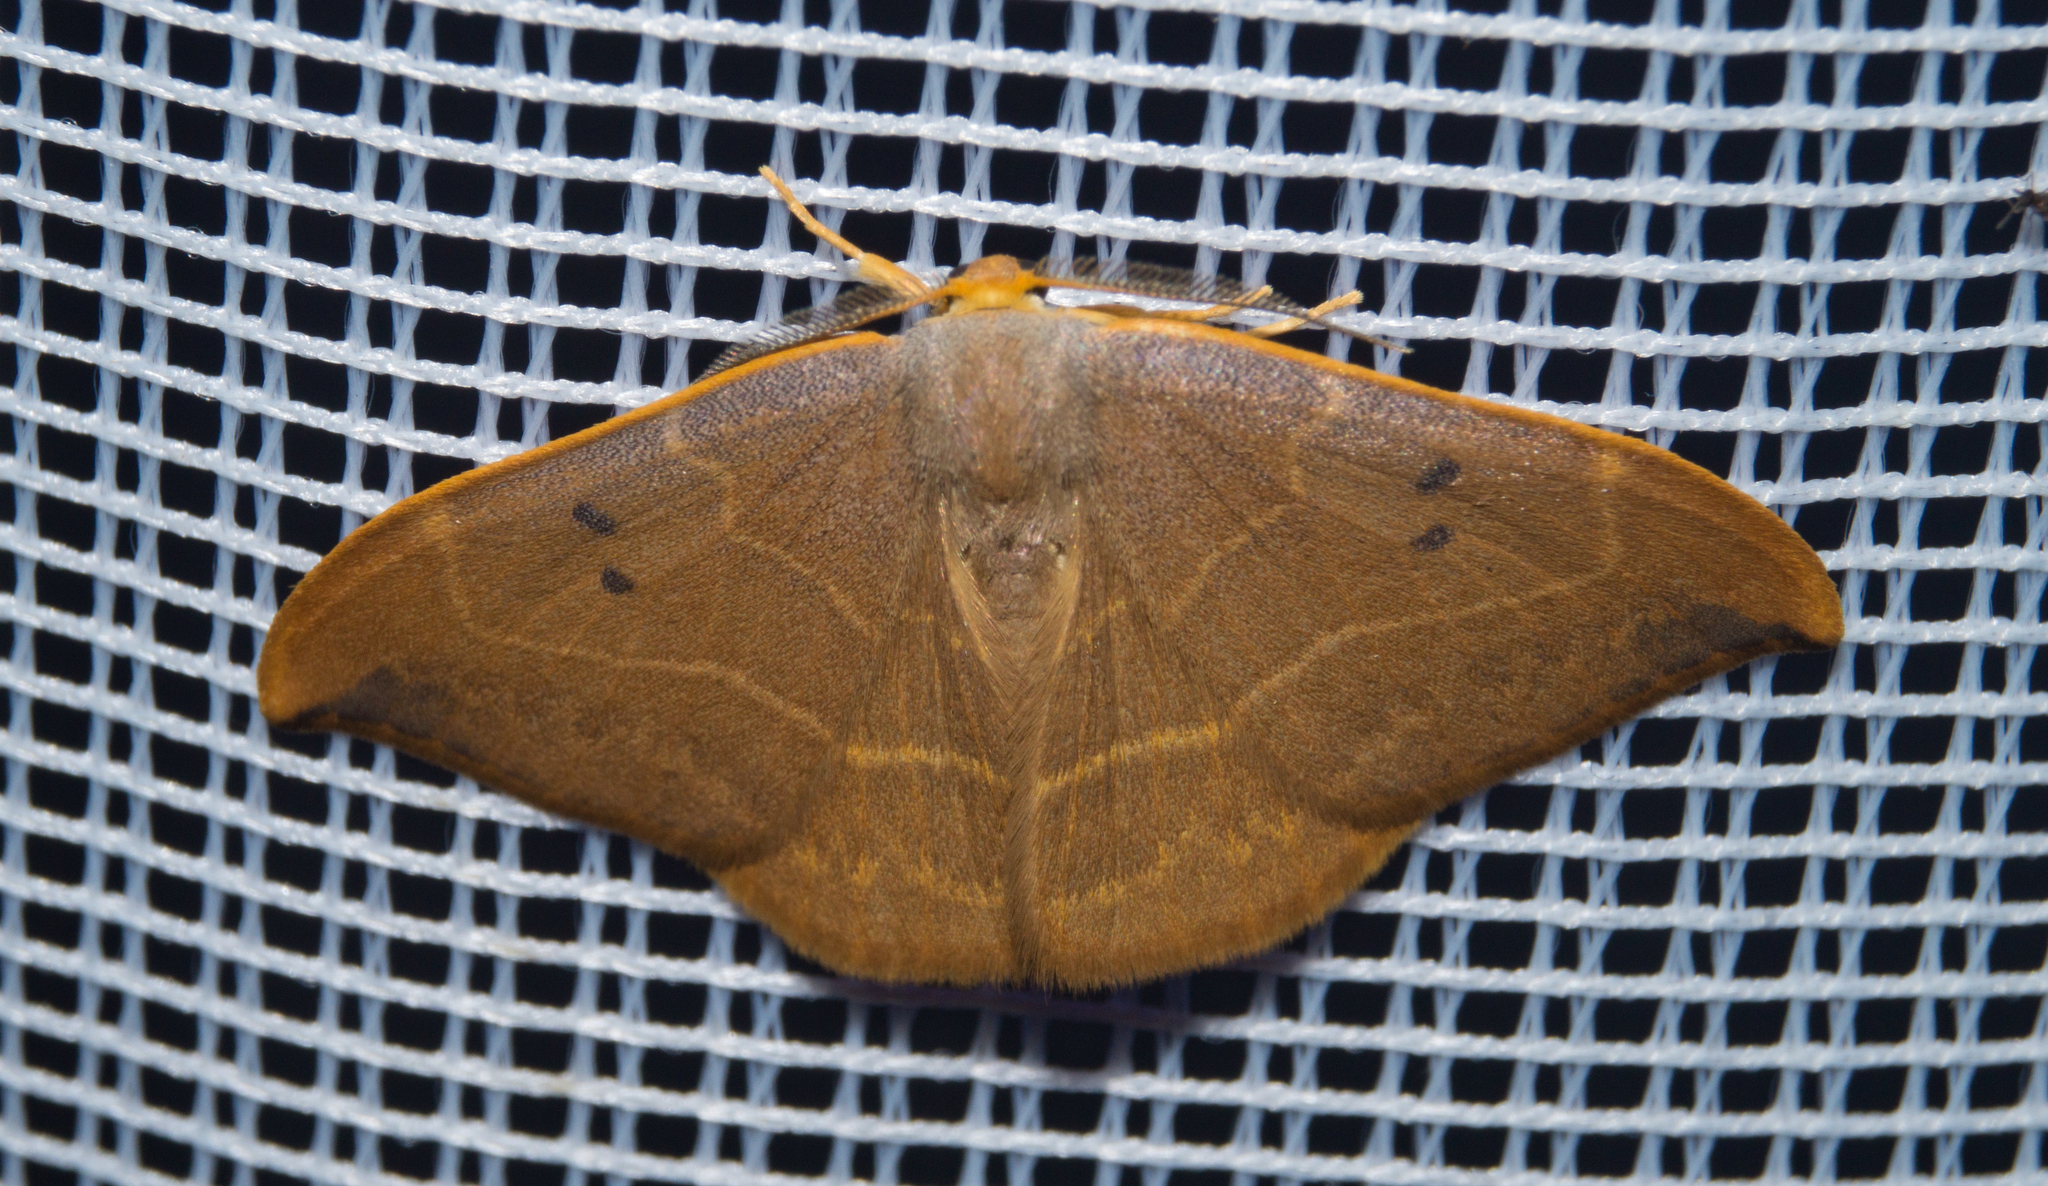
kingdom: Animalia
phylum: Arthropoda
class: Insecta
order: Lepidoptera
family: Drepanidae
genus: Watsonalla
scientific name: Watsonalla binaria
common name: Oak hook-tip
